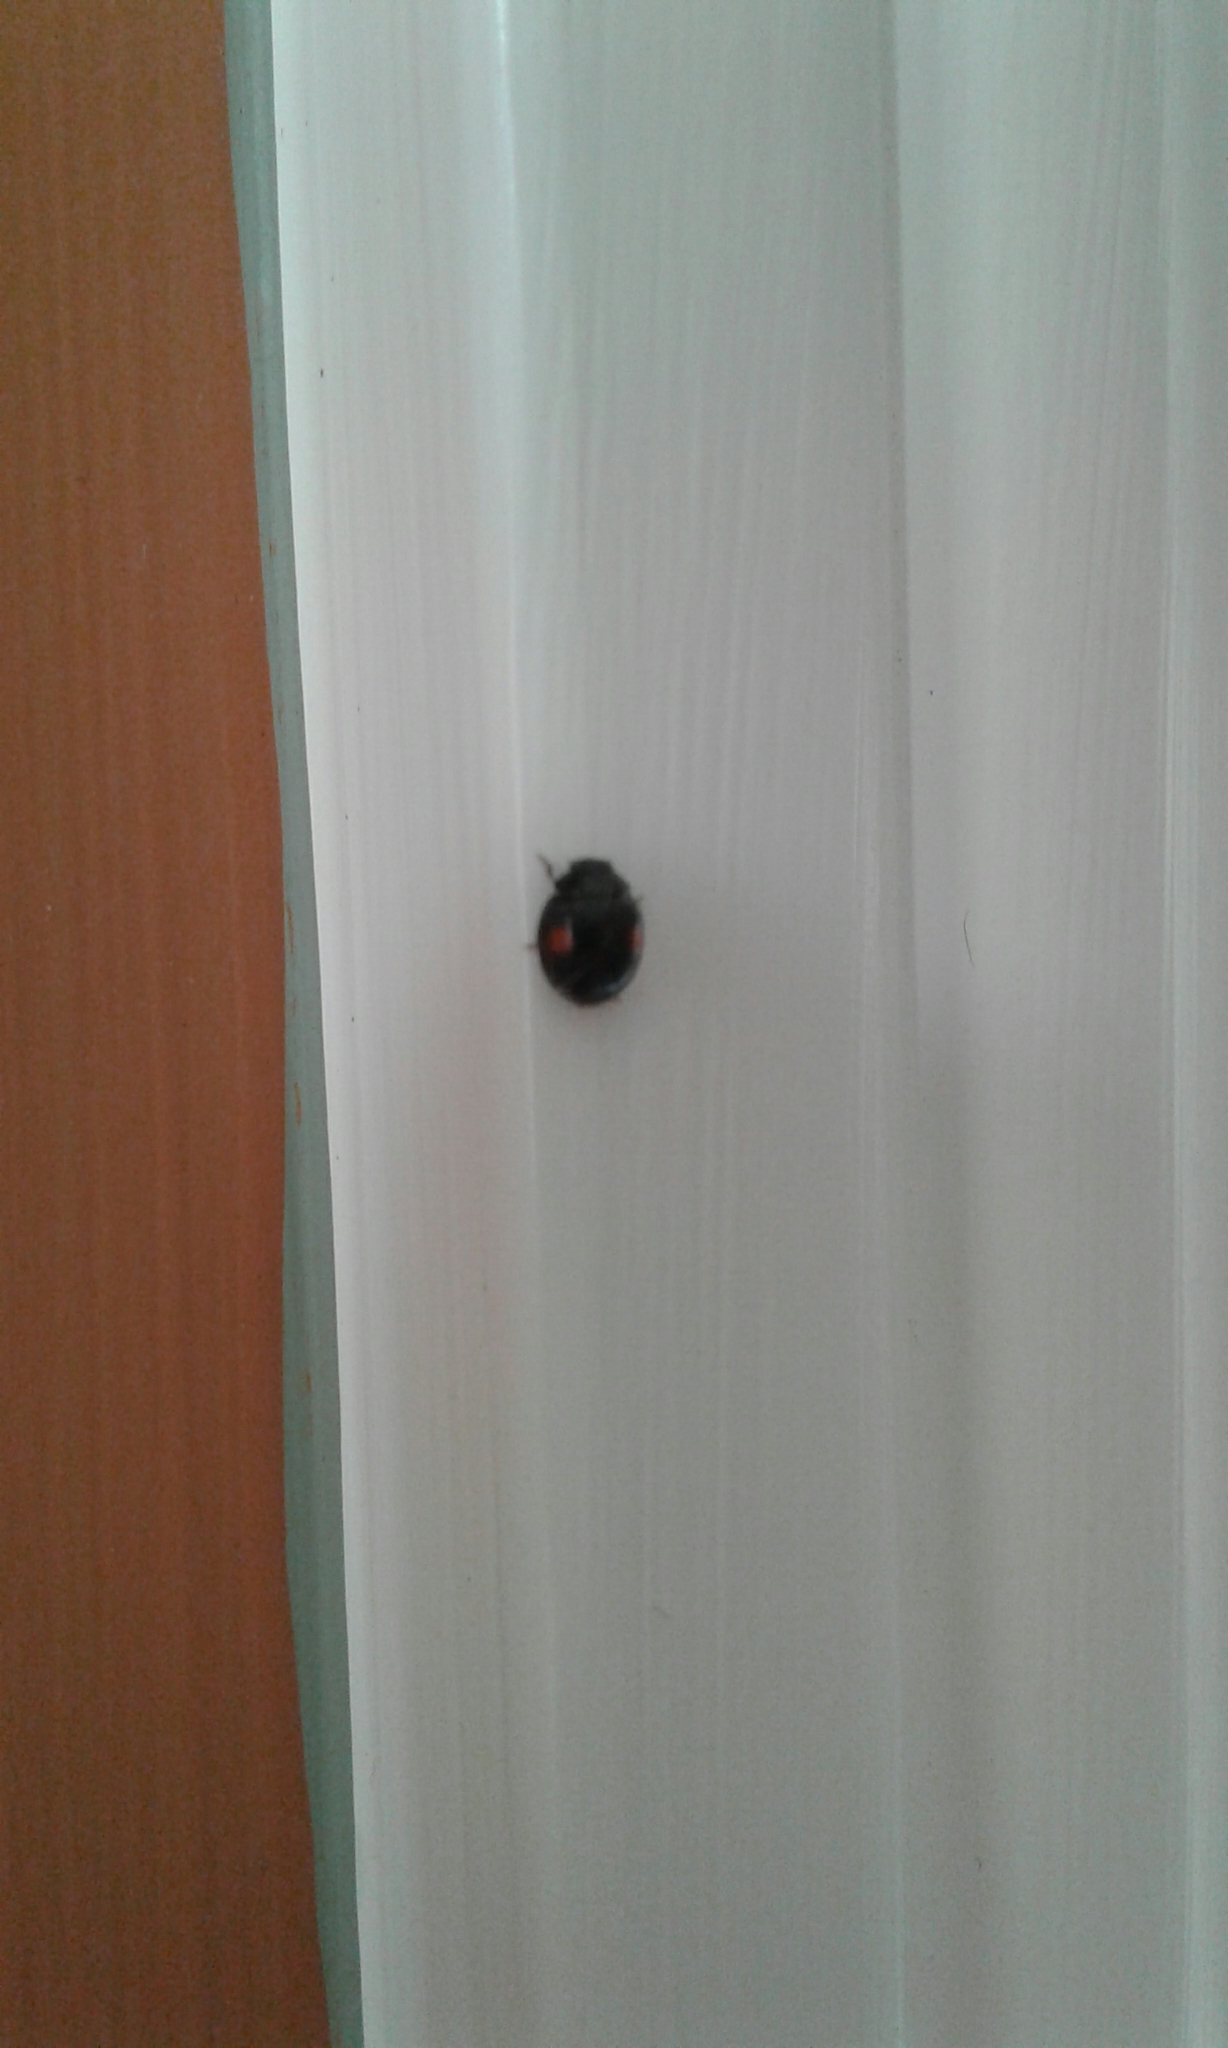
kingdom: Animalia
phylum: Arthropoda
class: Insecta
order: Coleoptera
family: Coccinellidae
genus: Chilocorus
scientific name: Chilocorus stigma
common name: Twicestabbed lady beetle
